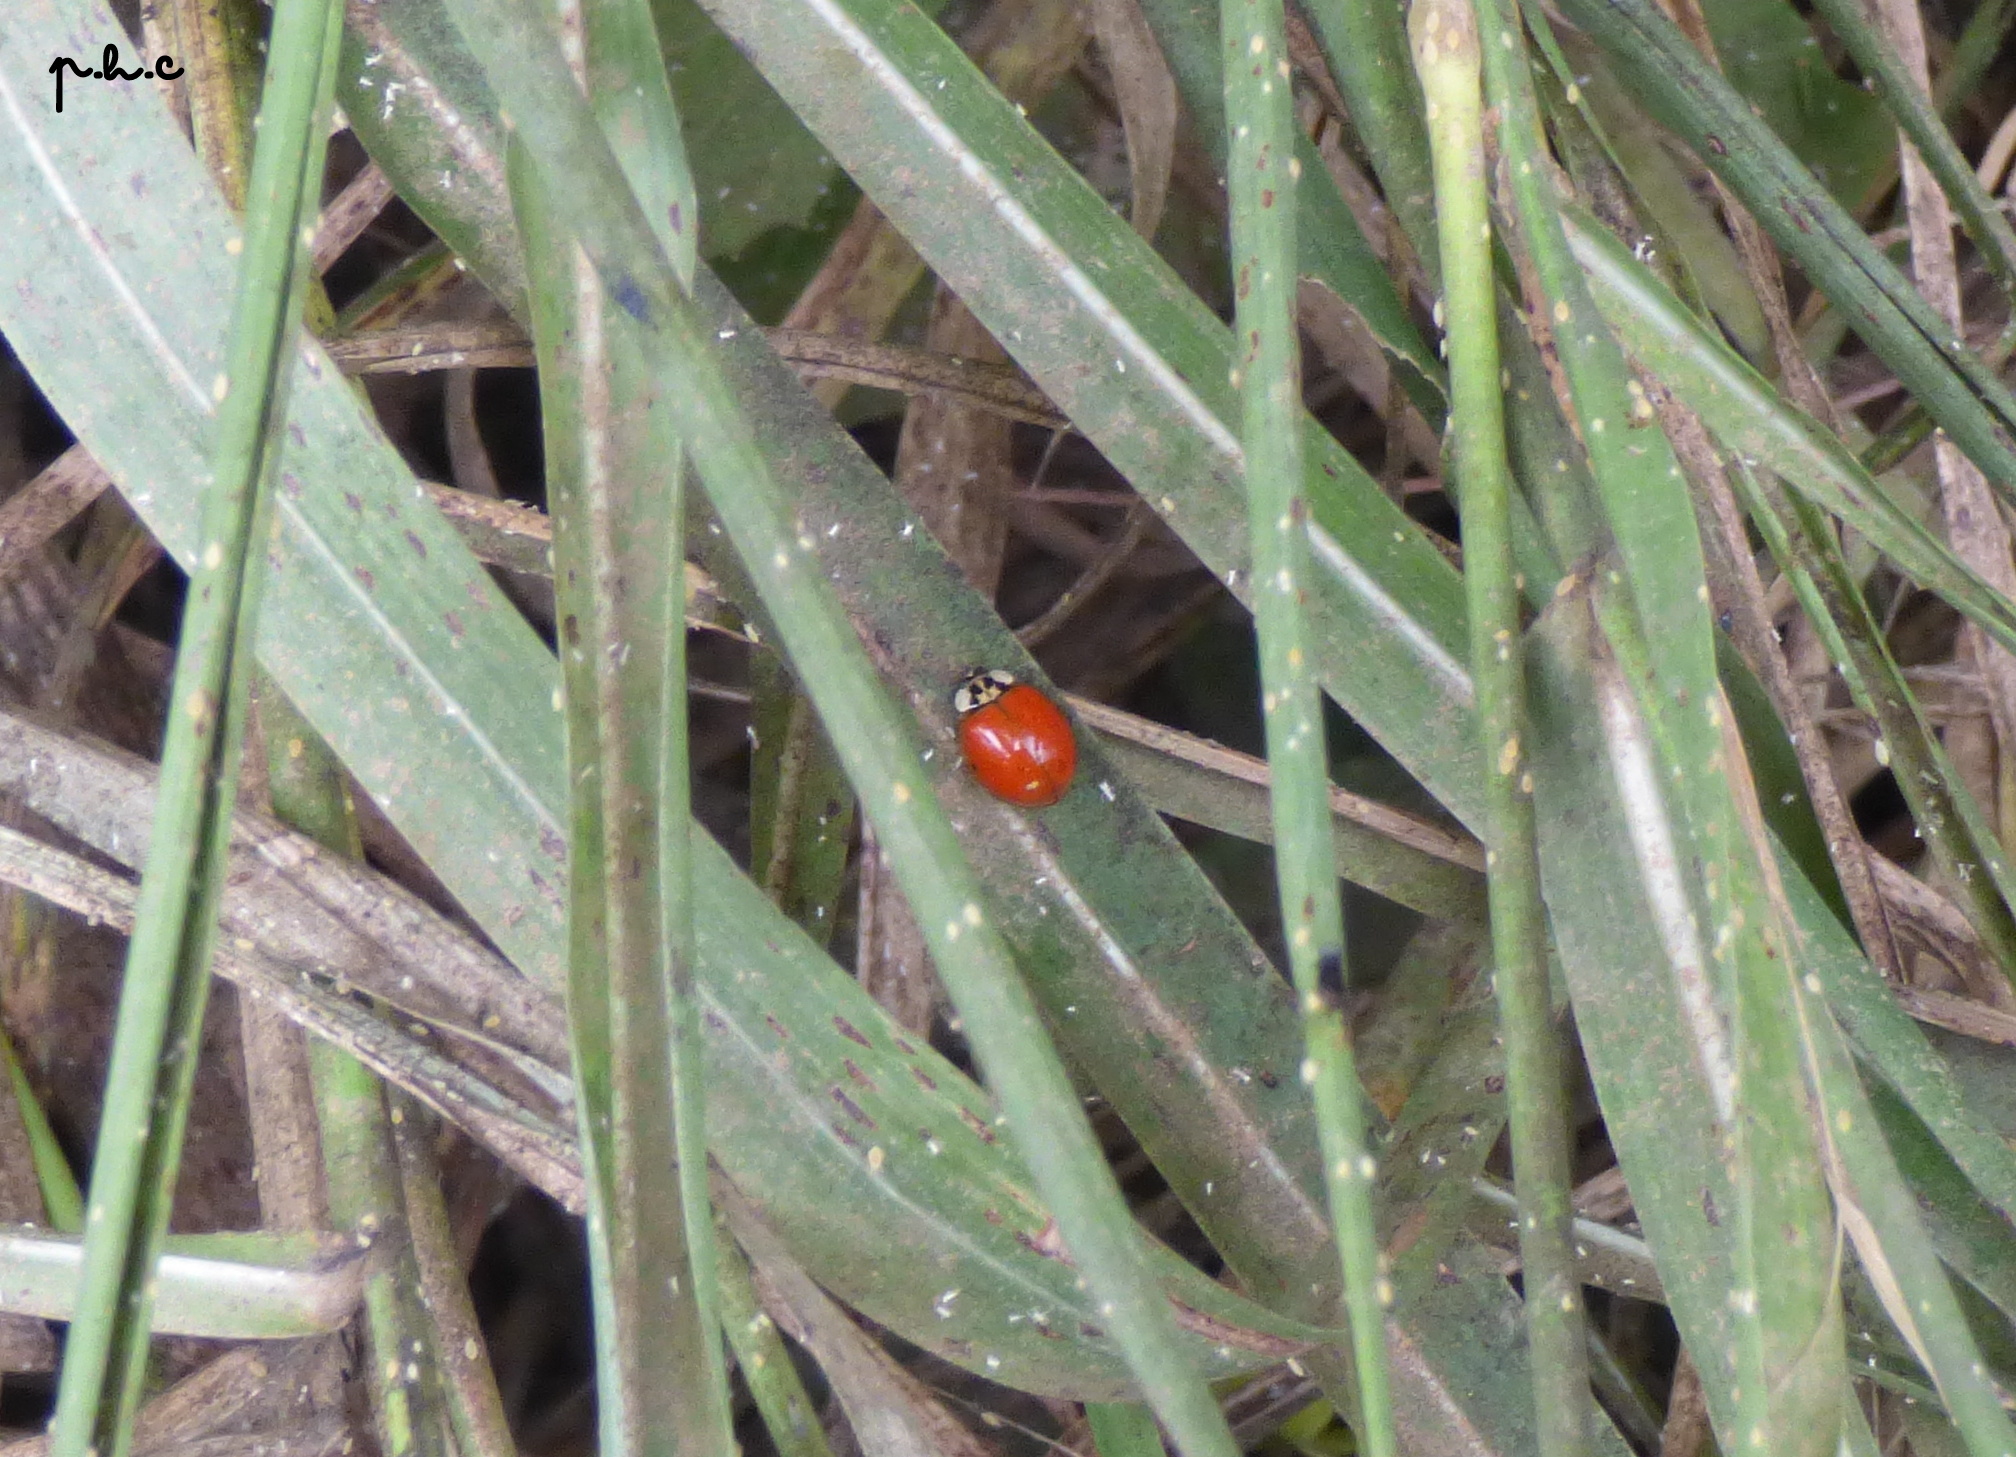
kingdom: Animalia
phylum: Arthropoda
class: Insecta
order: Coleoptera
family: Coccinellidae
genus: Harmonia
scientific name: Harmonia axyridis
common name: Harlequin ladybird
